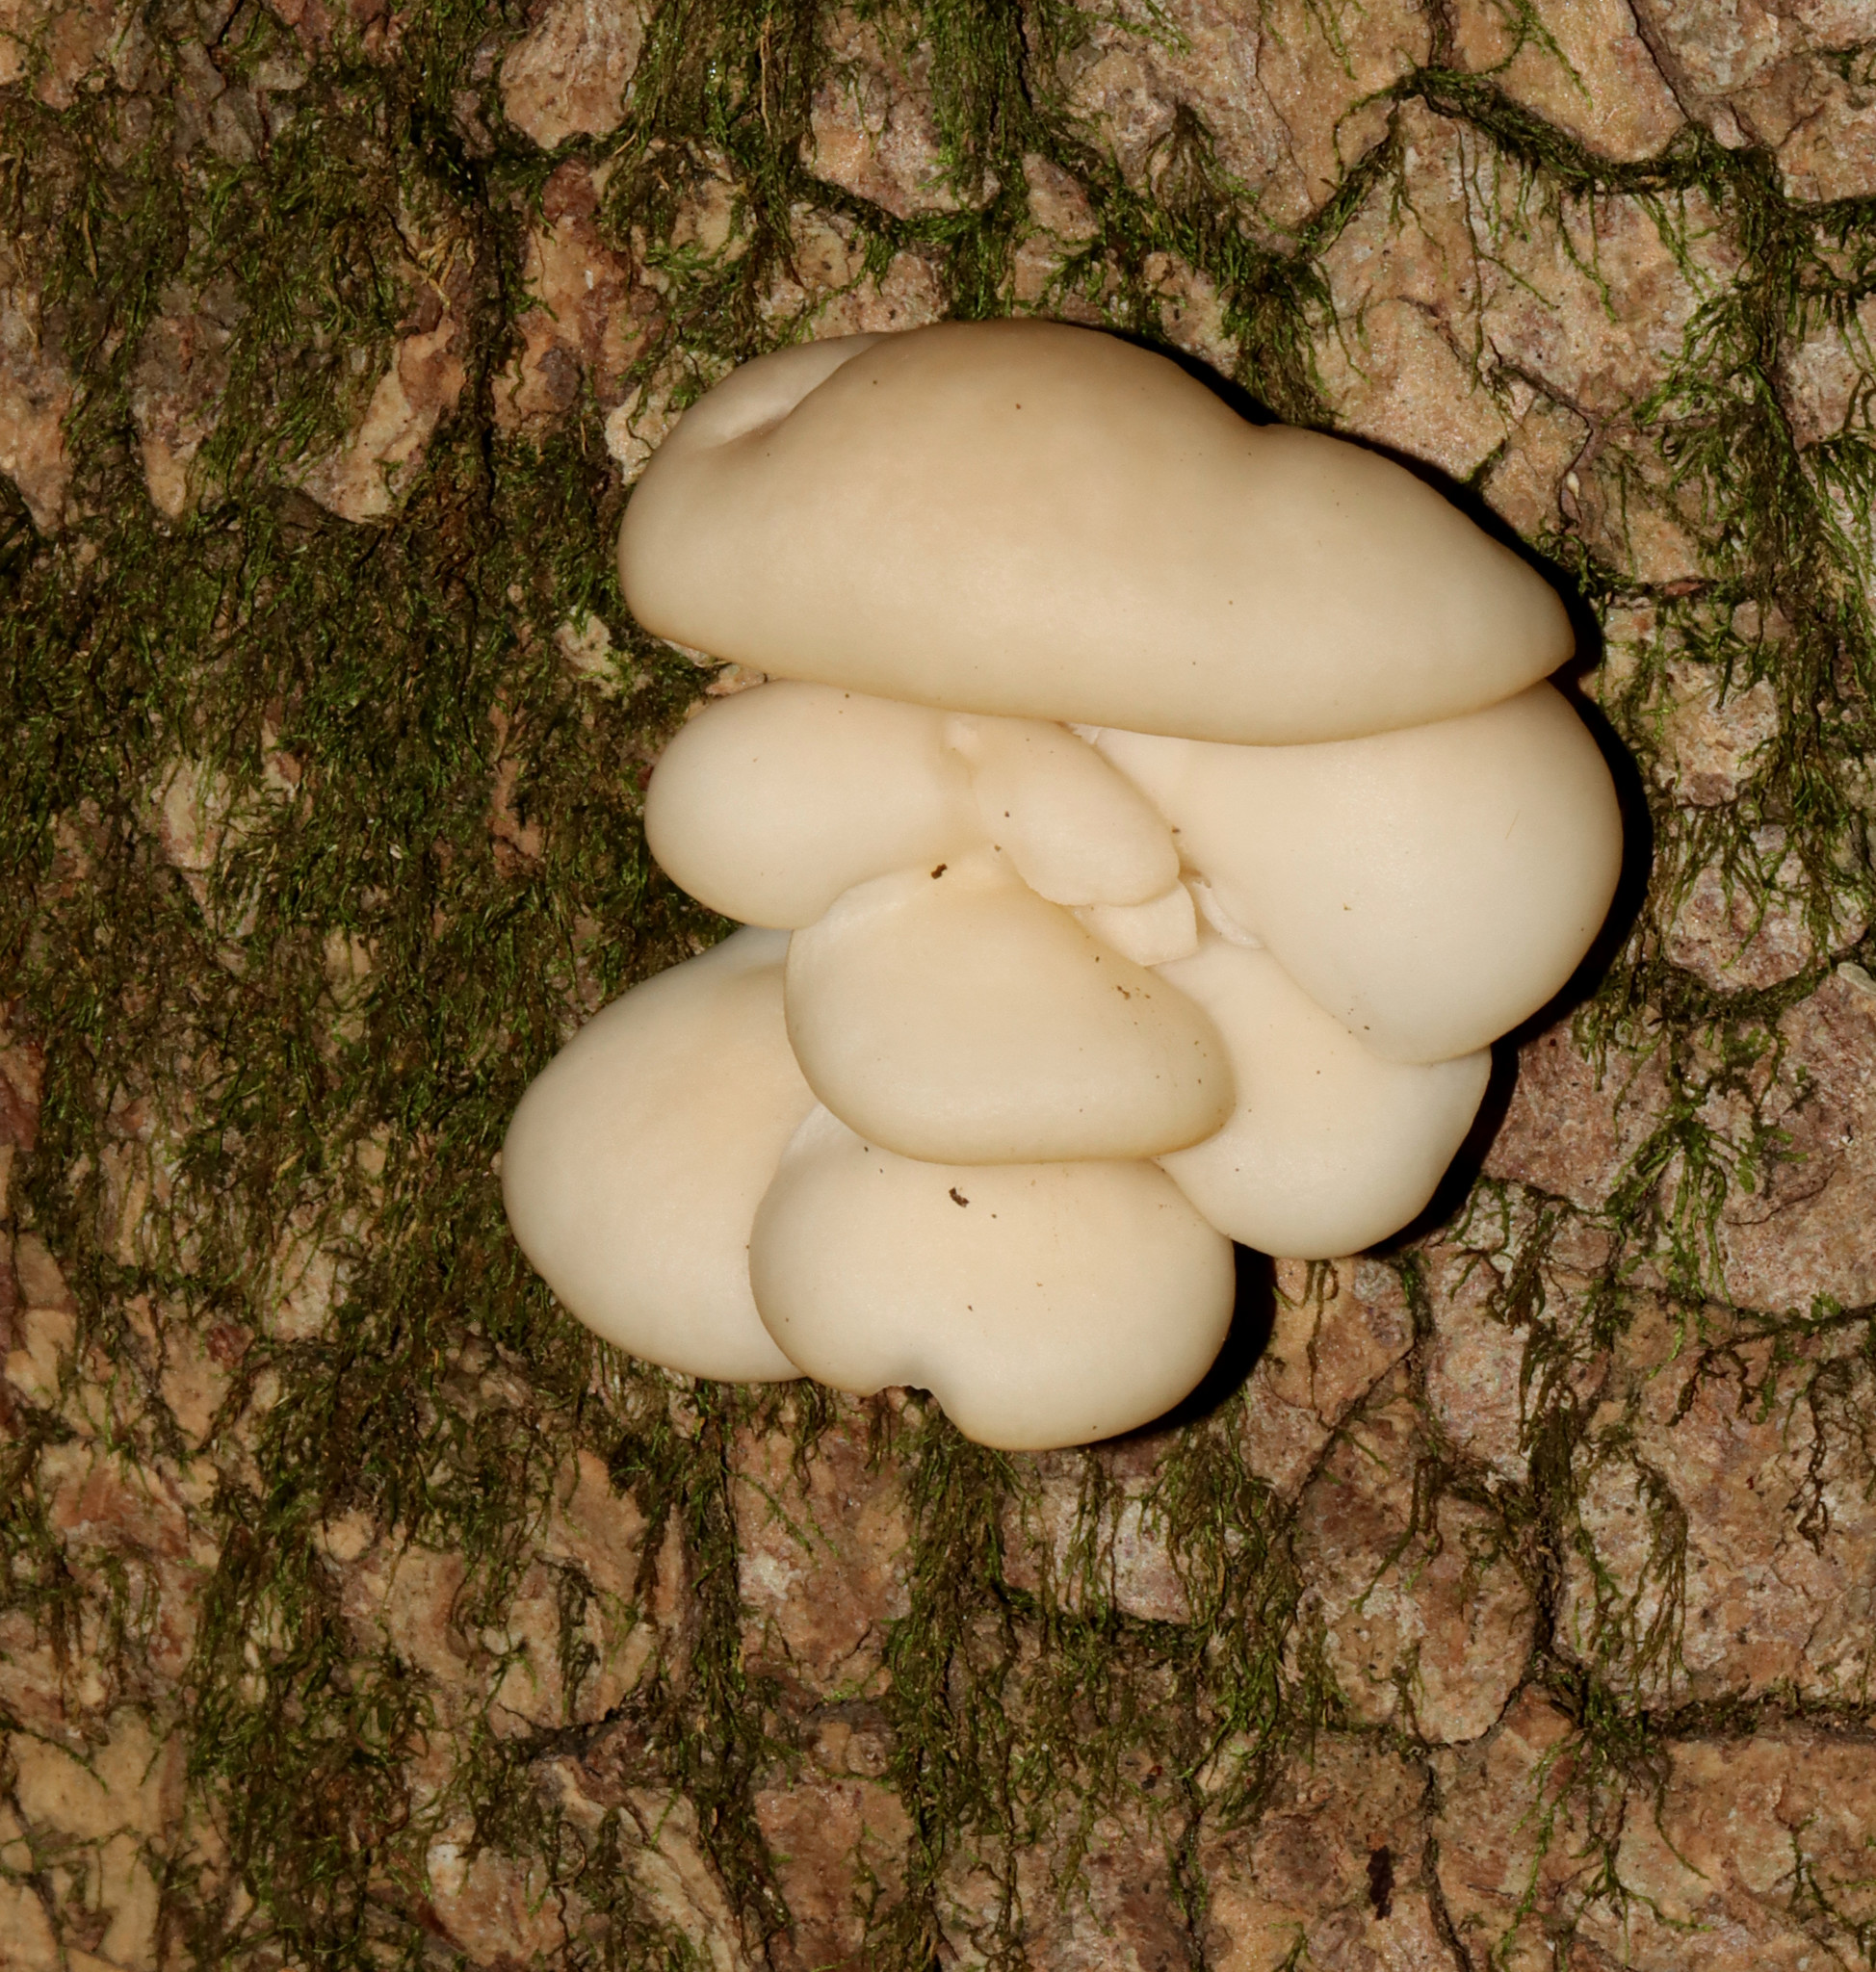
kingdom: Fungi
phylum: Basidiomycota
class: Agaricomycetes
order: Agaricales
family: Pleurotaceae
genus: Pleurotus
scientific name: Pleurotus ostreatus
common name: Oyster mushroom
